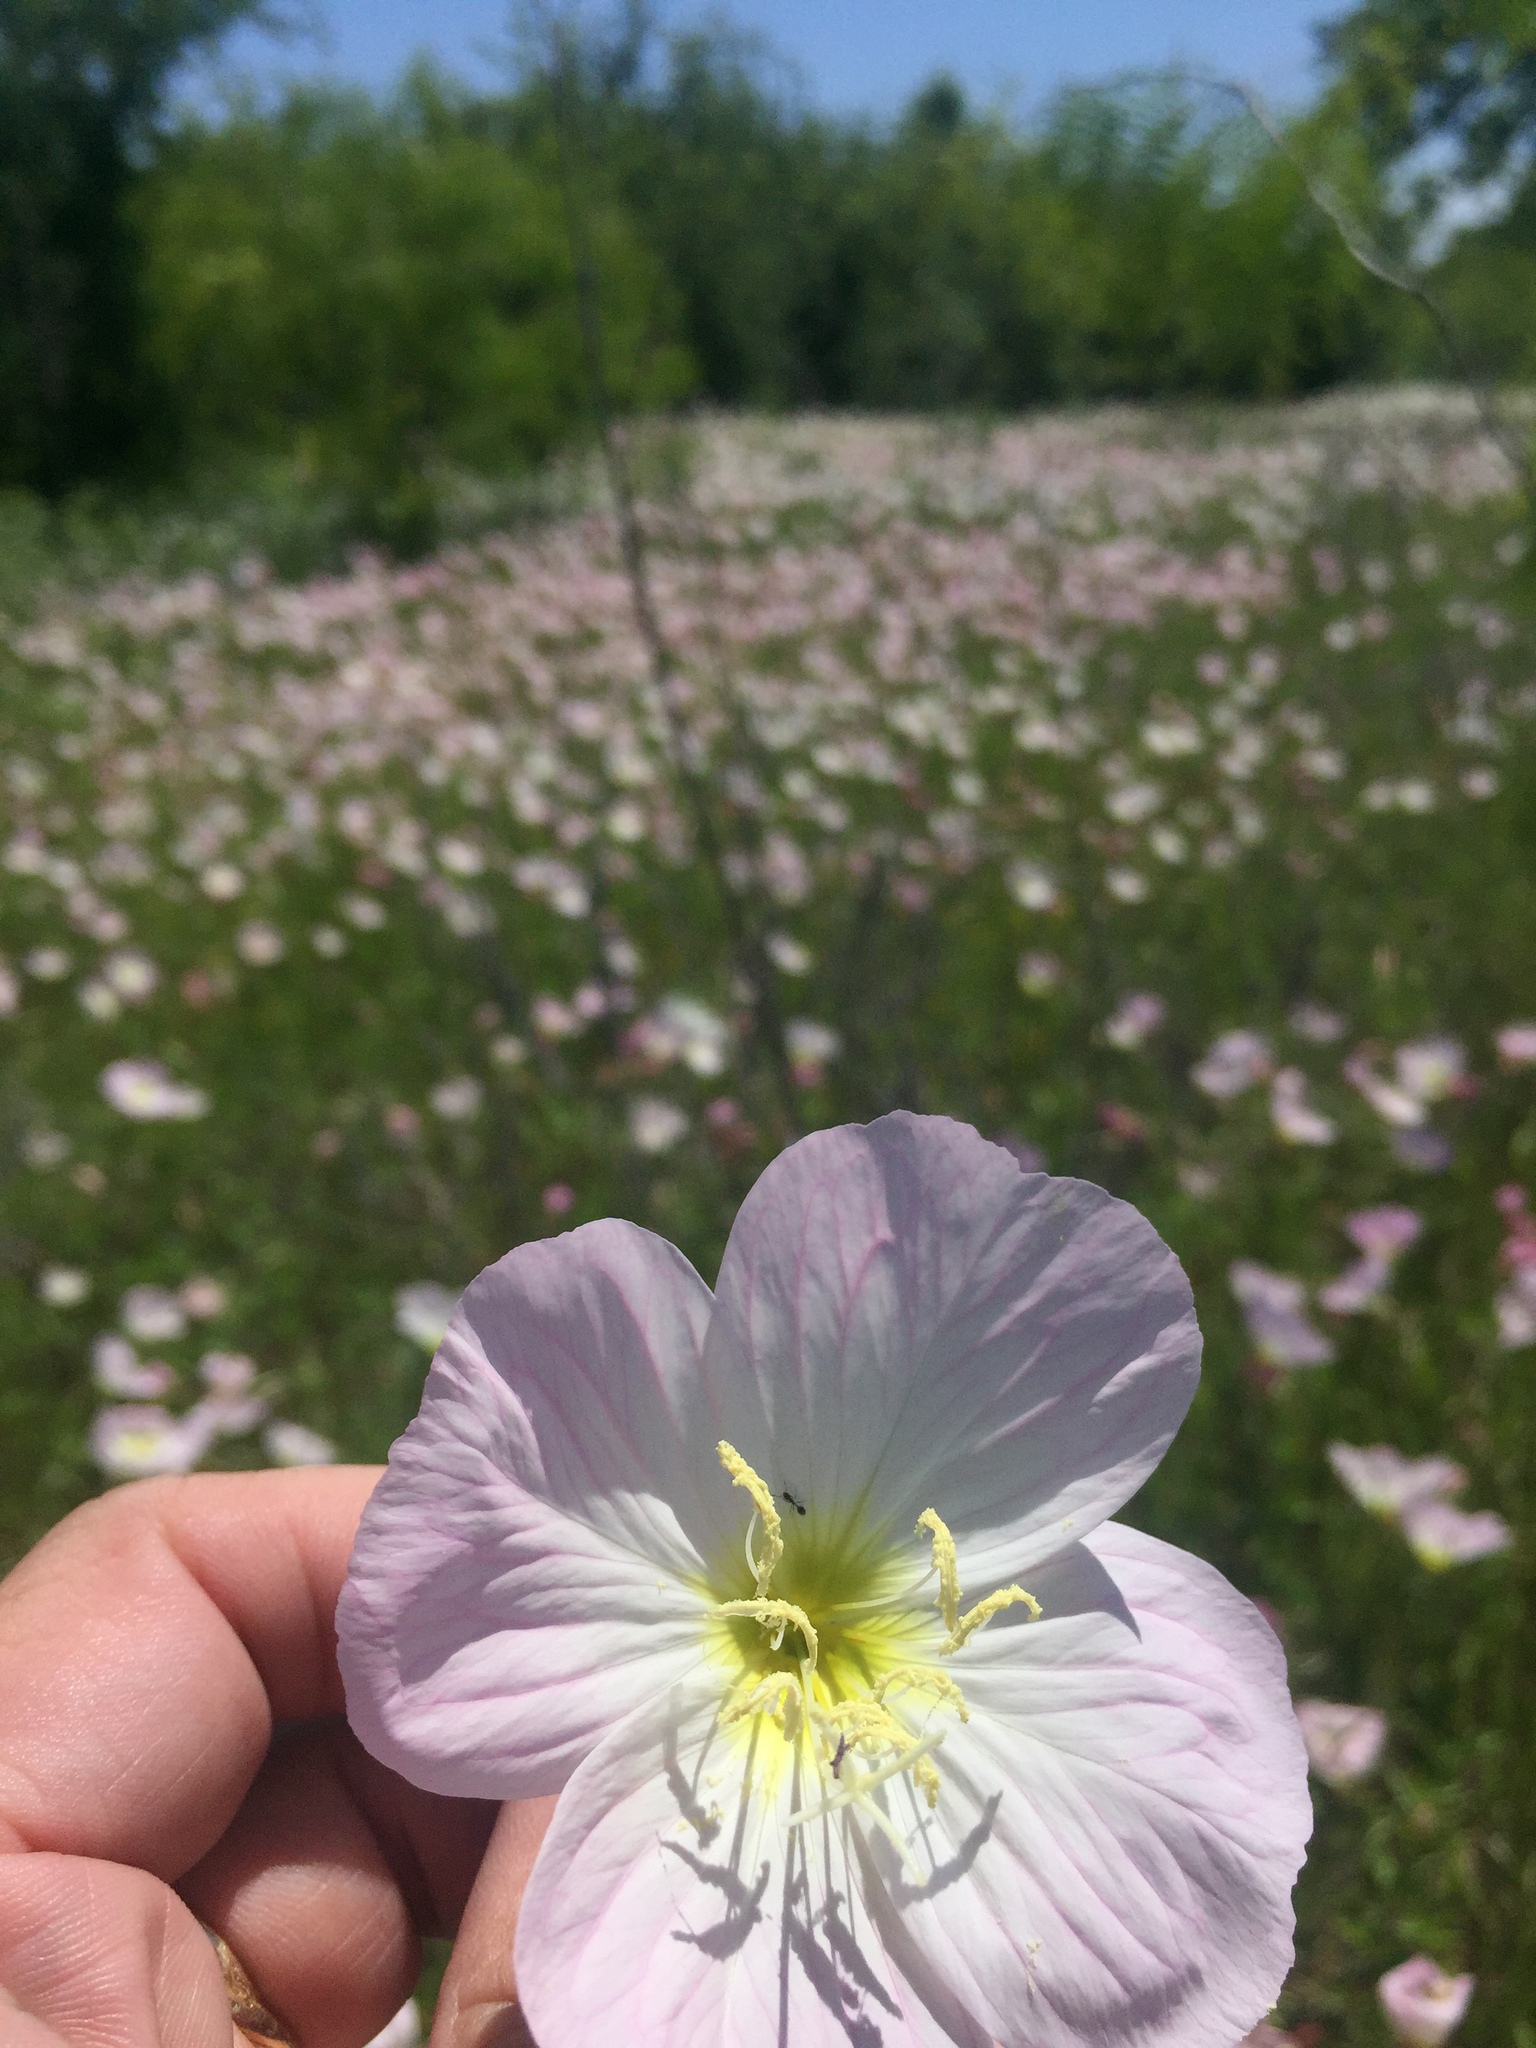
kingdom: Plantae
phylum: Tracheophyta
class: Magnoliopsida
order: Myrtales
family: Onagraceae
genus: Oenothera
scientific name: Oenothera speciosa
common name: White evening-primrose
